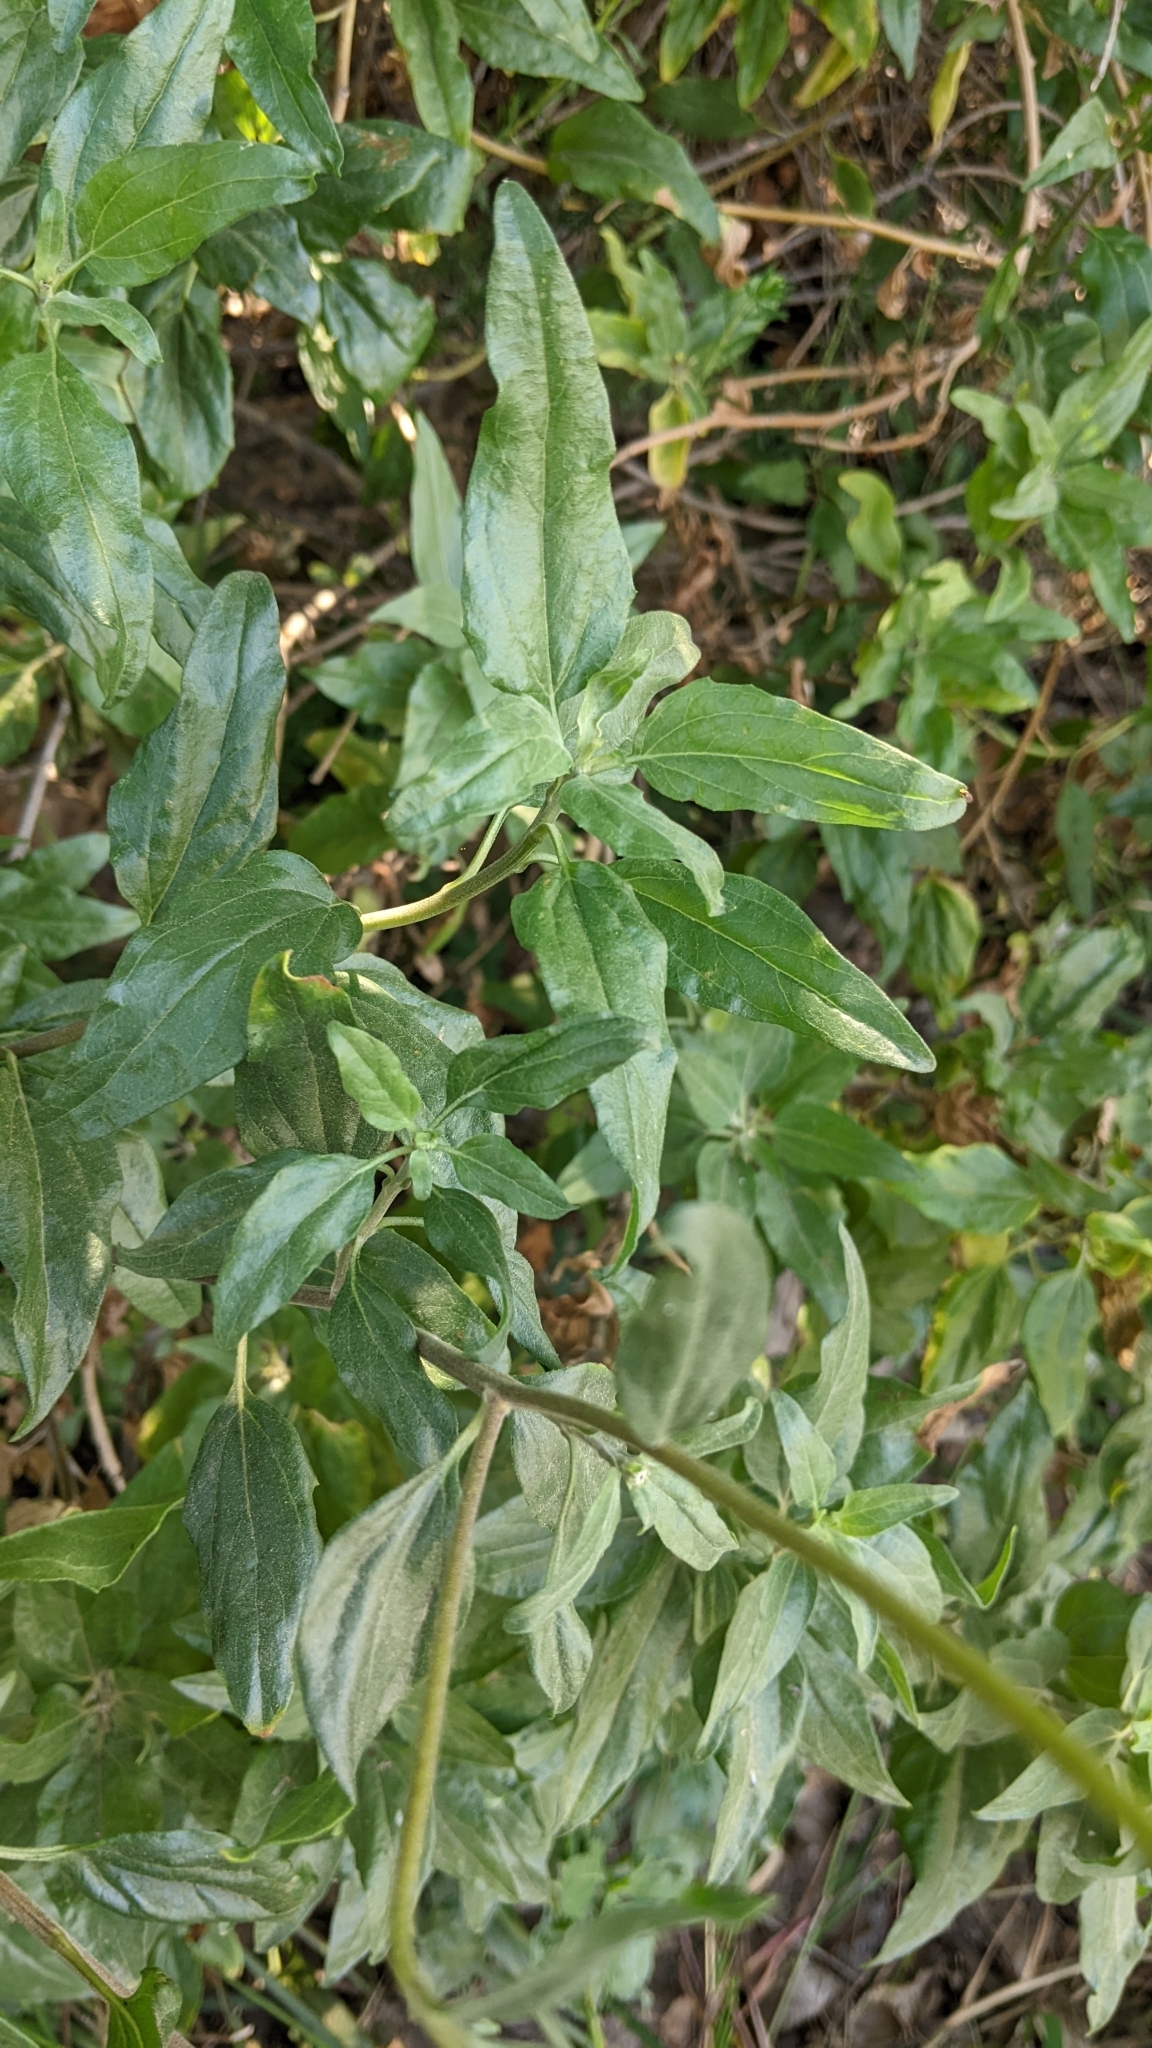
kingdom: Plantae
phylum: Tracheophyta
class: Magnoliopsida
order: Asterales
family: Asteraceae
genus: Encelia
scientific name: Encelia californica
